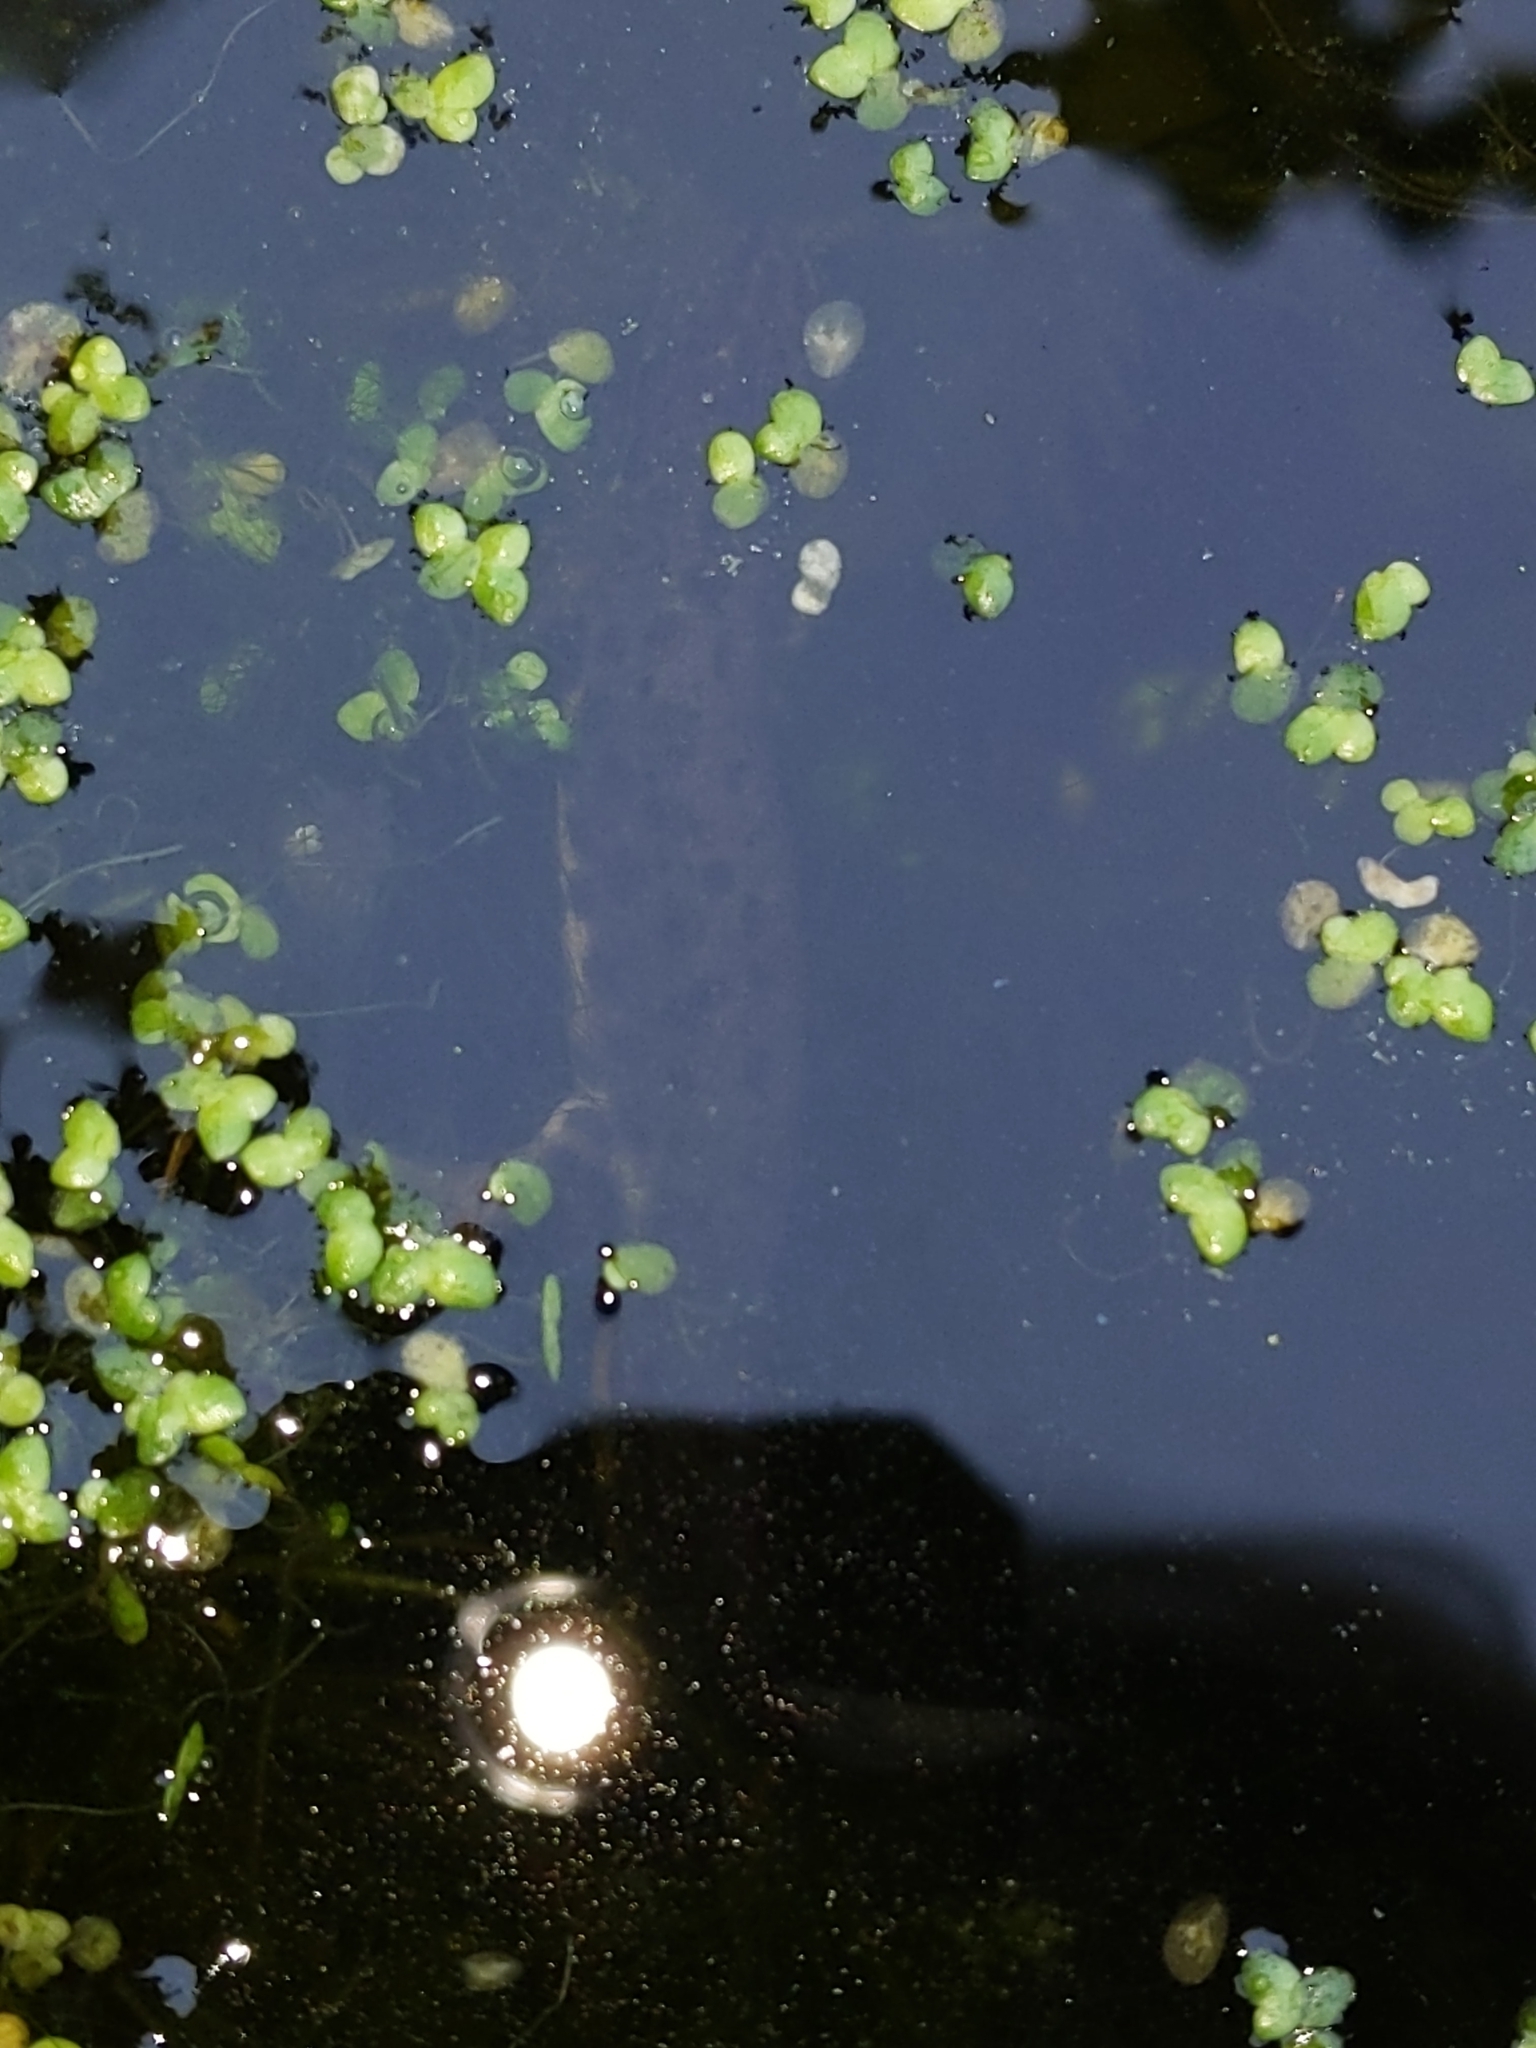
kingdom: Animalia
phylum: Chordata
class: Amphibia
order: Caudata
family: Salamandridae
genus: Lissotriton
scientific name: Lissotriton vulgaris
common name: Smooth newt
